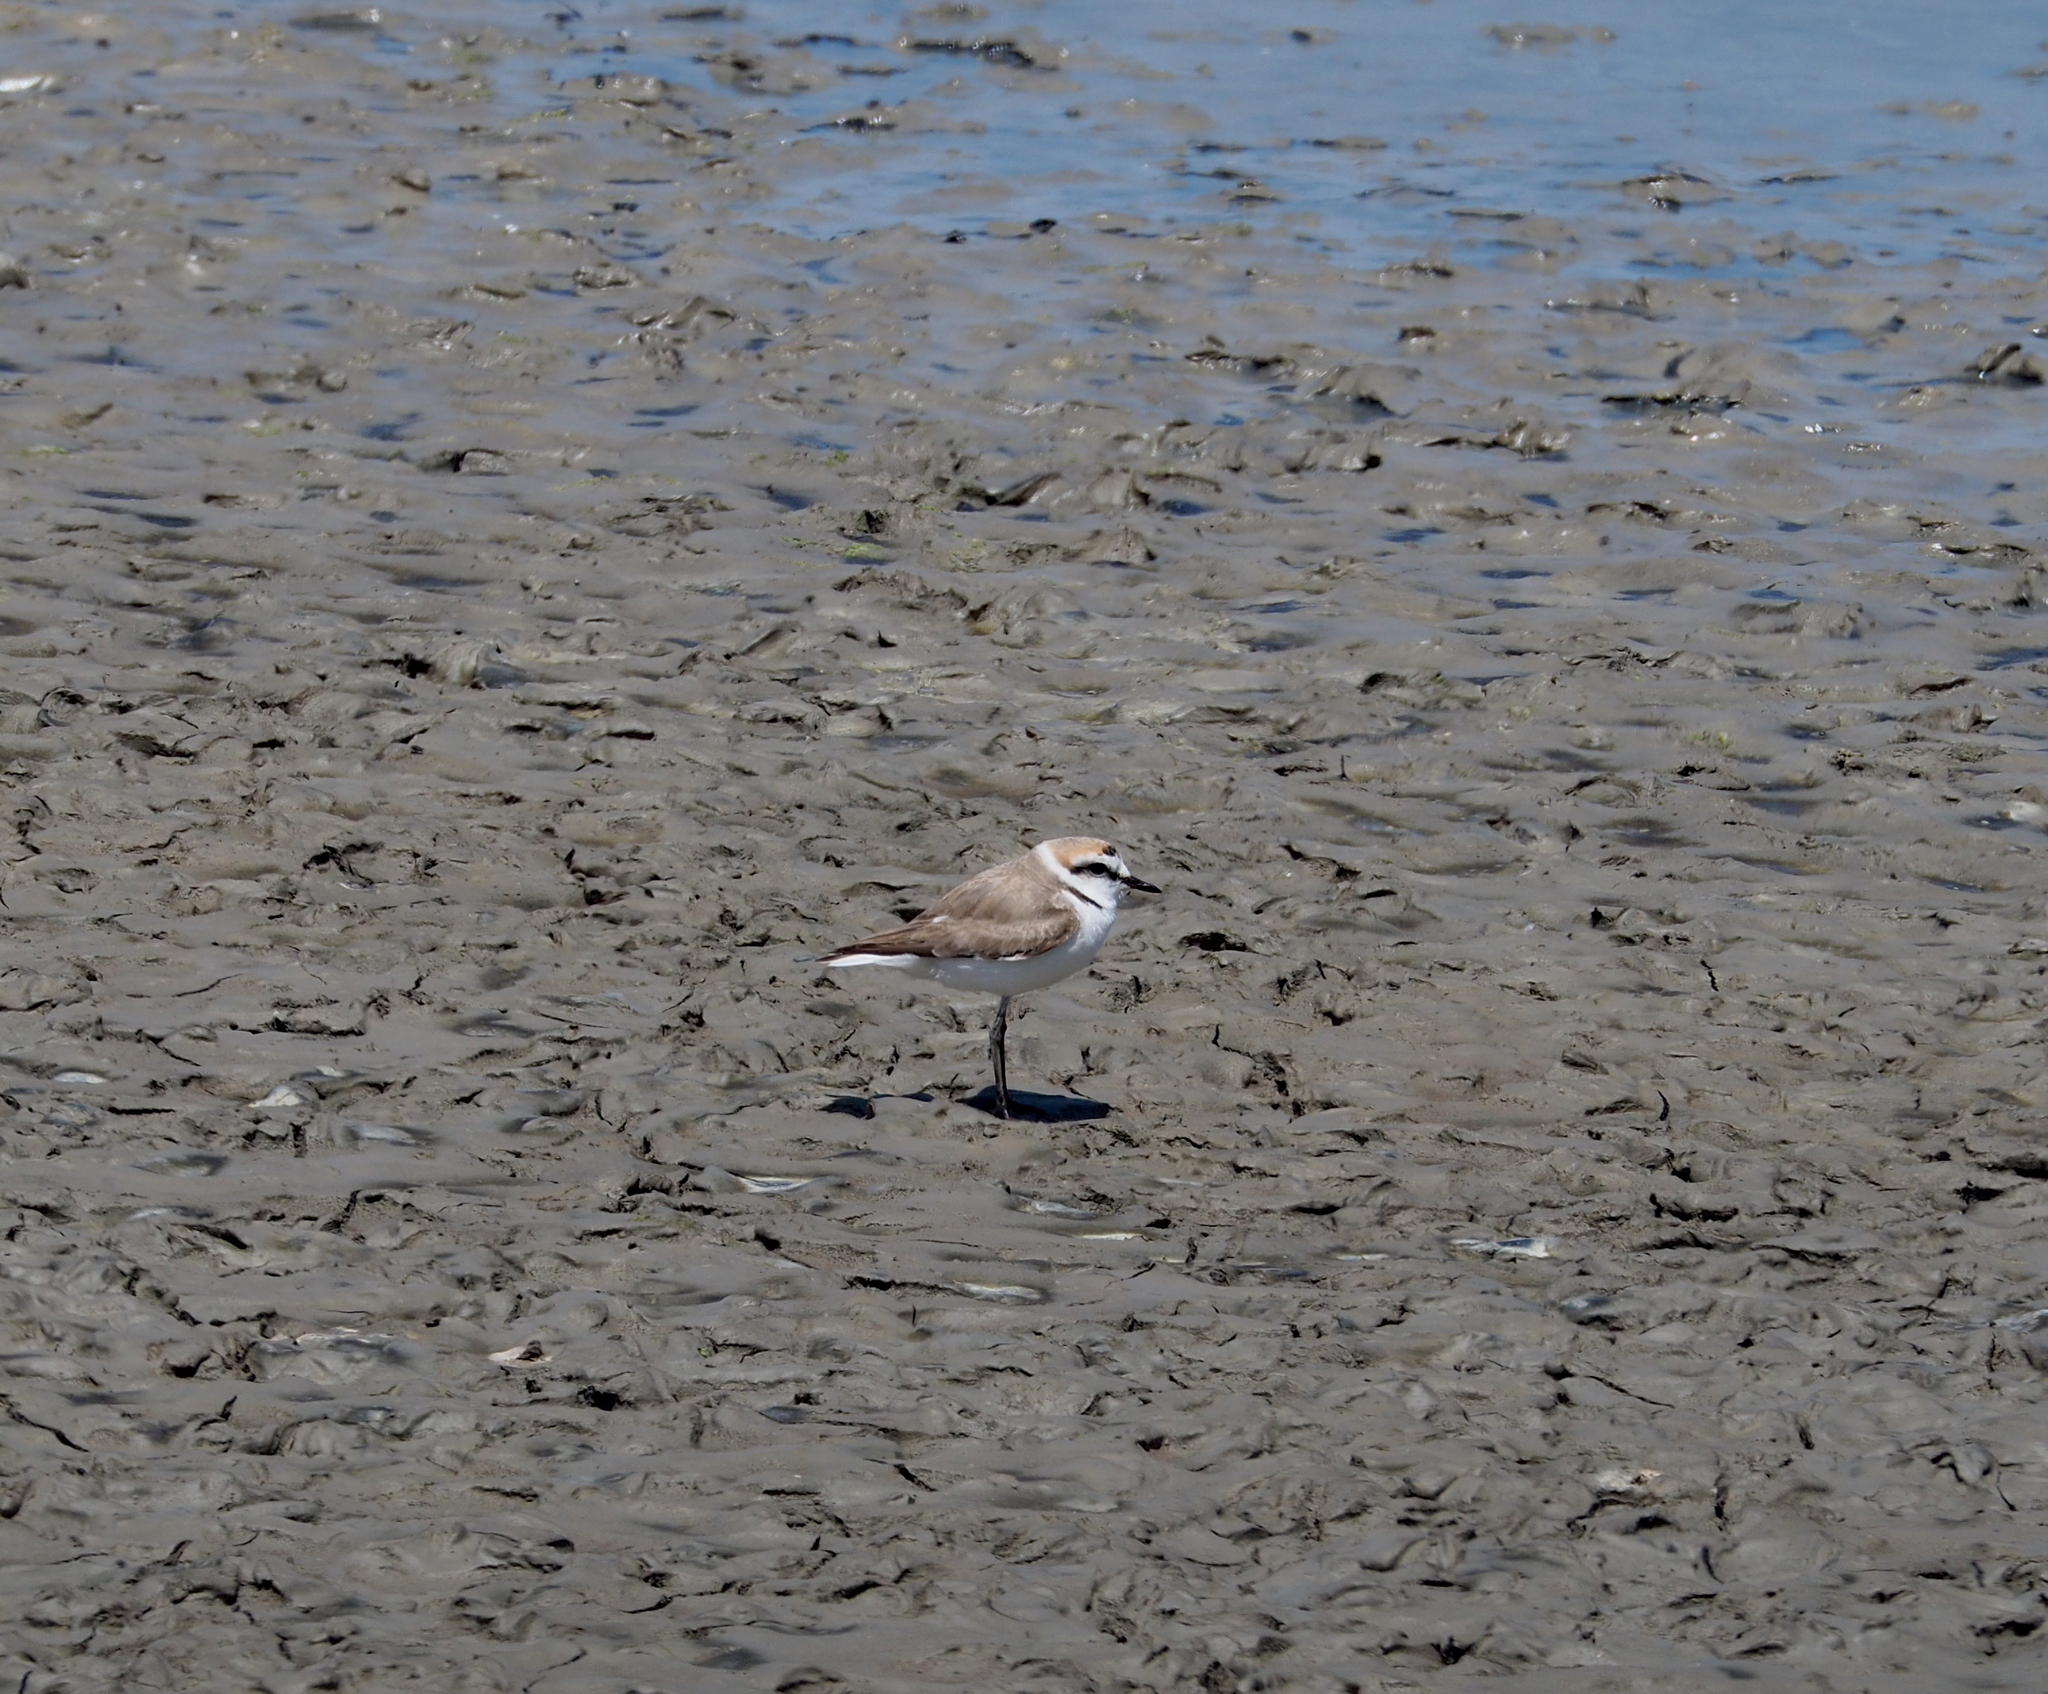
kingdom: Animalia
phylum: Chordata
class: Aves
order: Charadriiformes
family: Charadriidae
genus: Charadrius
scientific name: Charadrius alexandrinus
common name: Kentish plover
